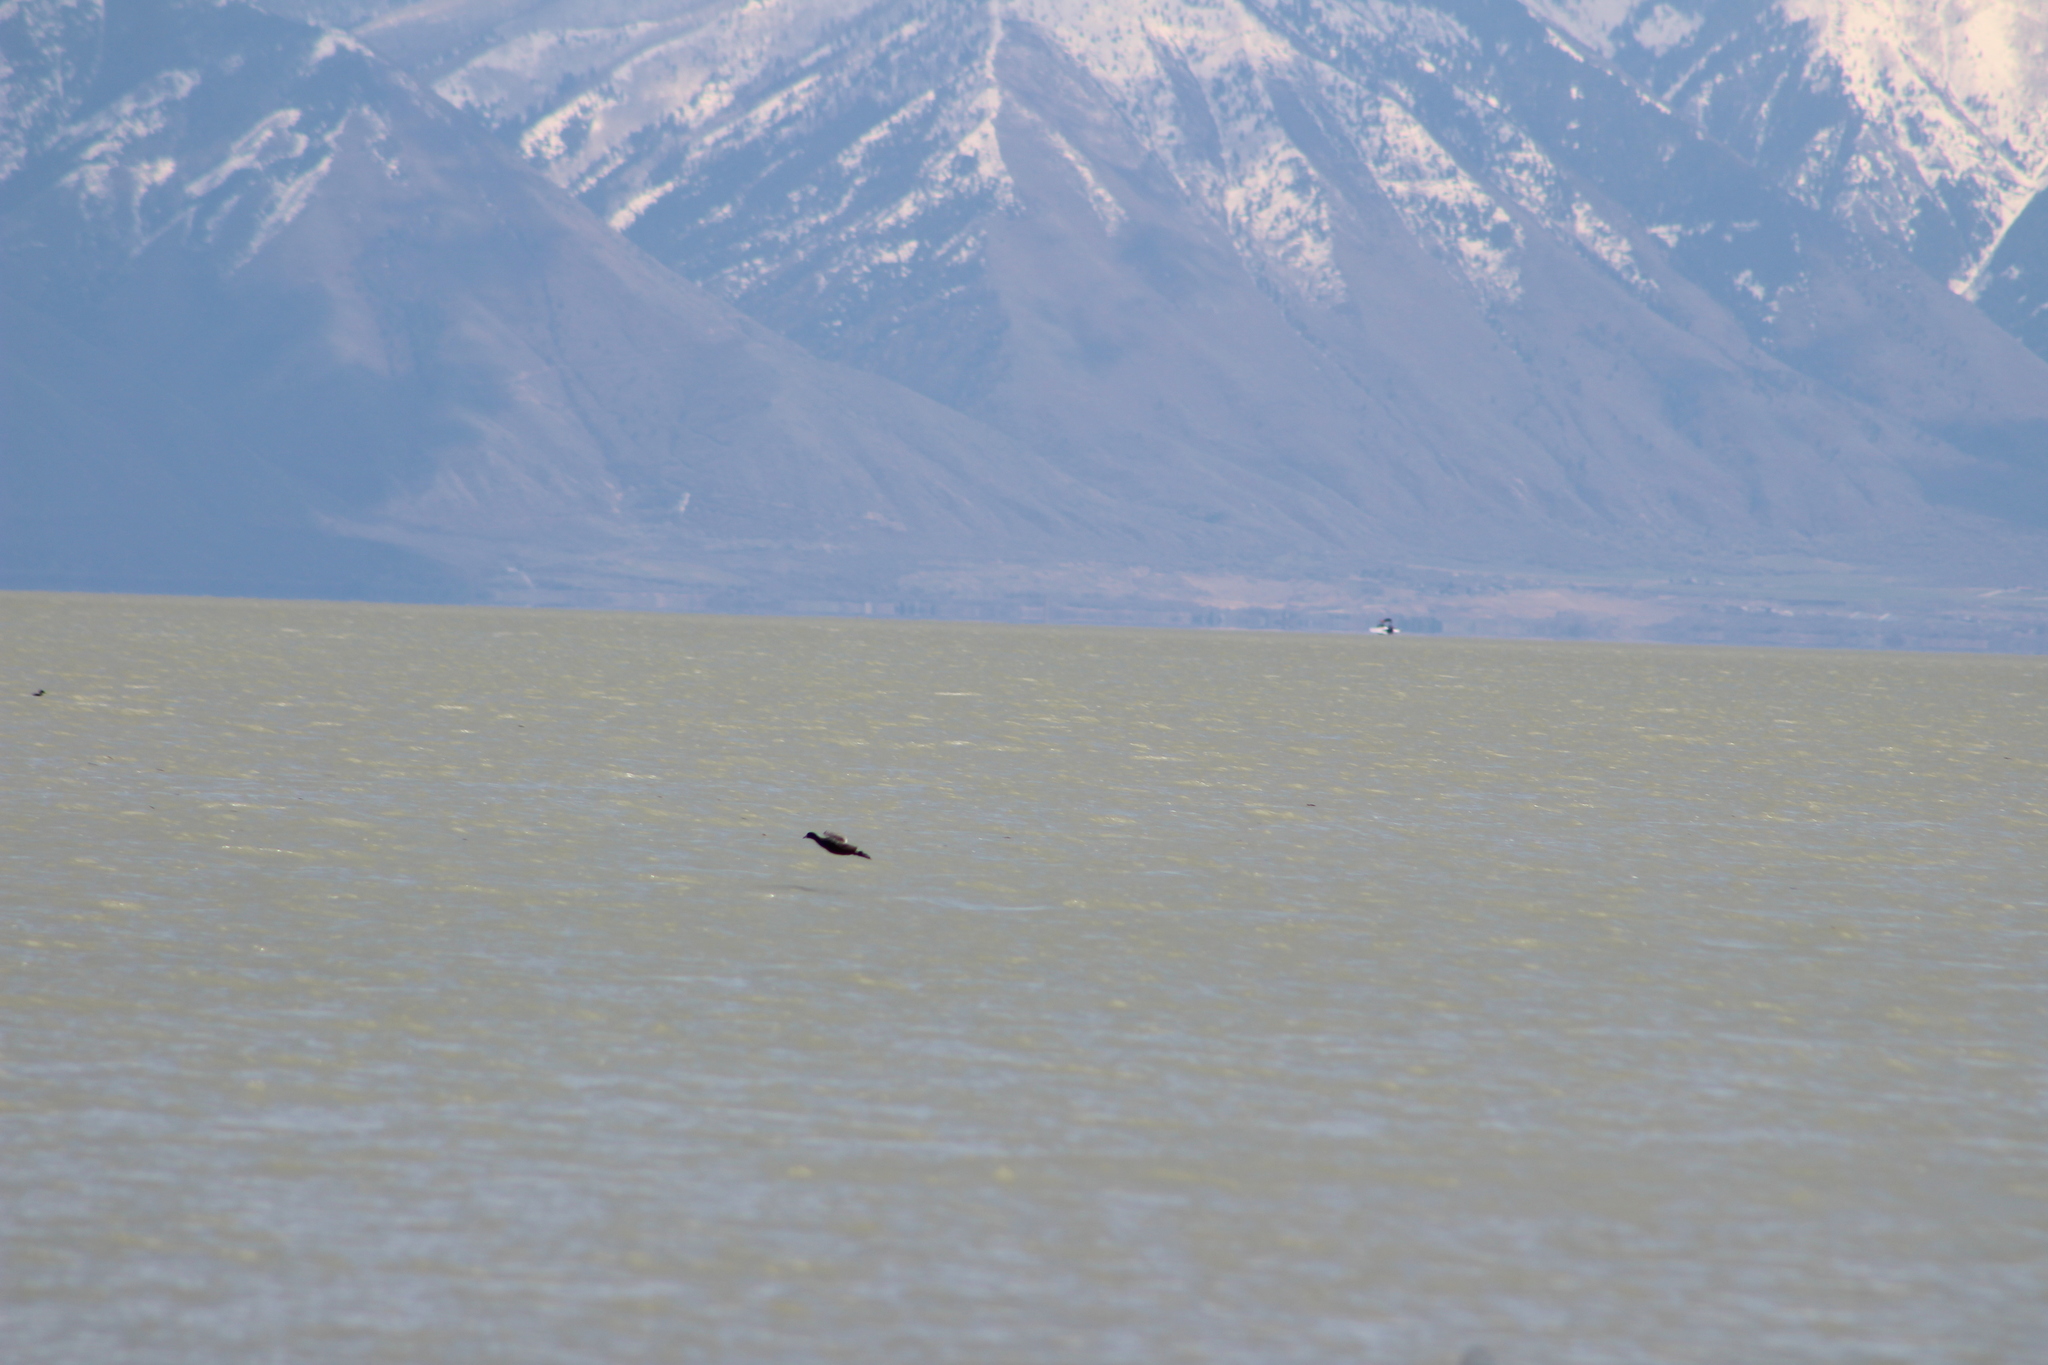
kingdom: Animalia
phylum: Chordata
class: Aves
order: Gruiformes
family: Rallidae
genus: Fulica
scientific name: Fulica americana
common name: American coot
